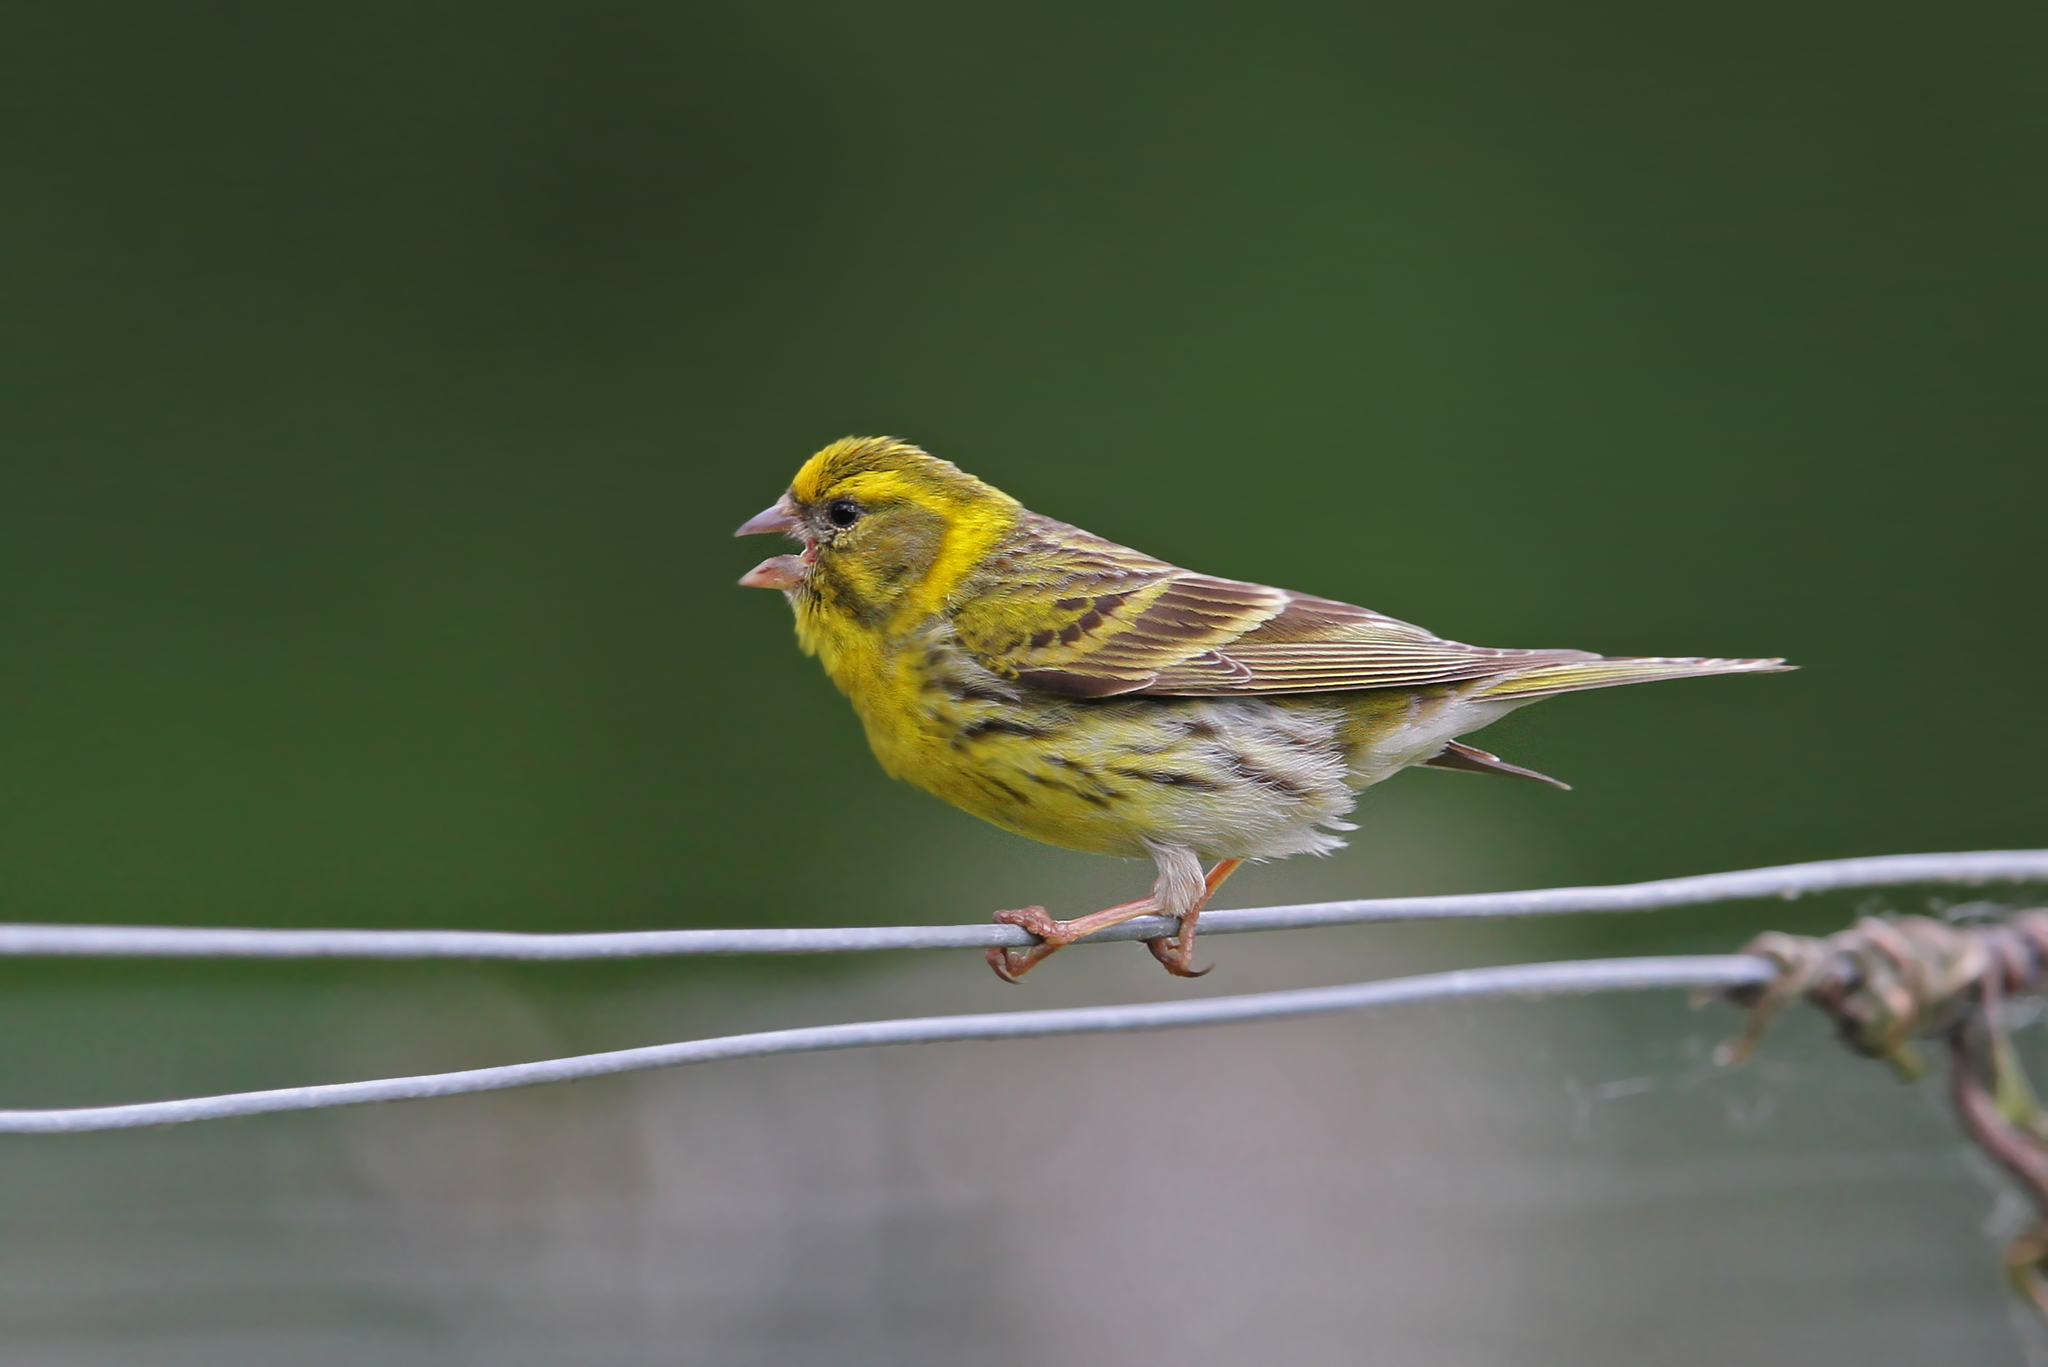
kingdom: Animalia
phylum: Chordata
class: Aves
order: Passeriformes
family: Fringillidae
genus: Serinus
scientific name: Serinus serinus
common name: European serin
